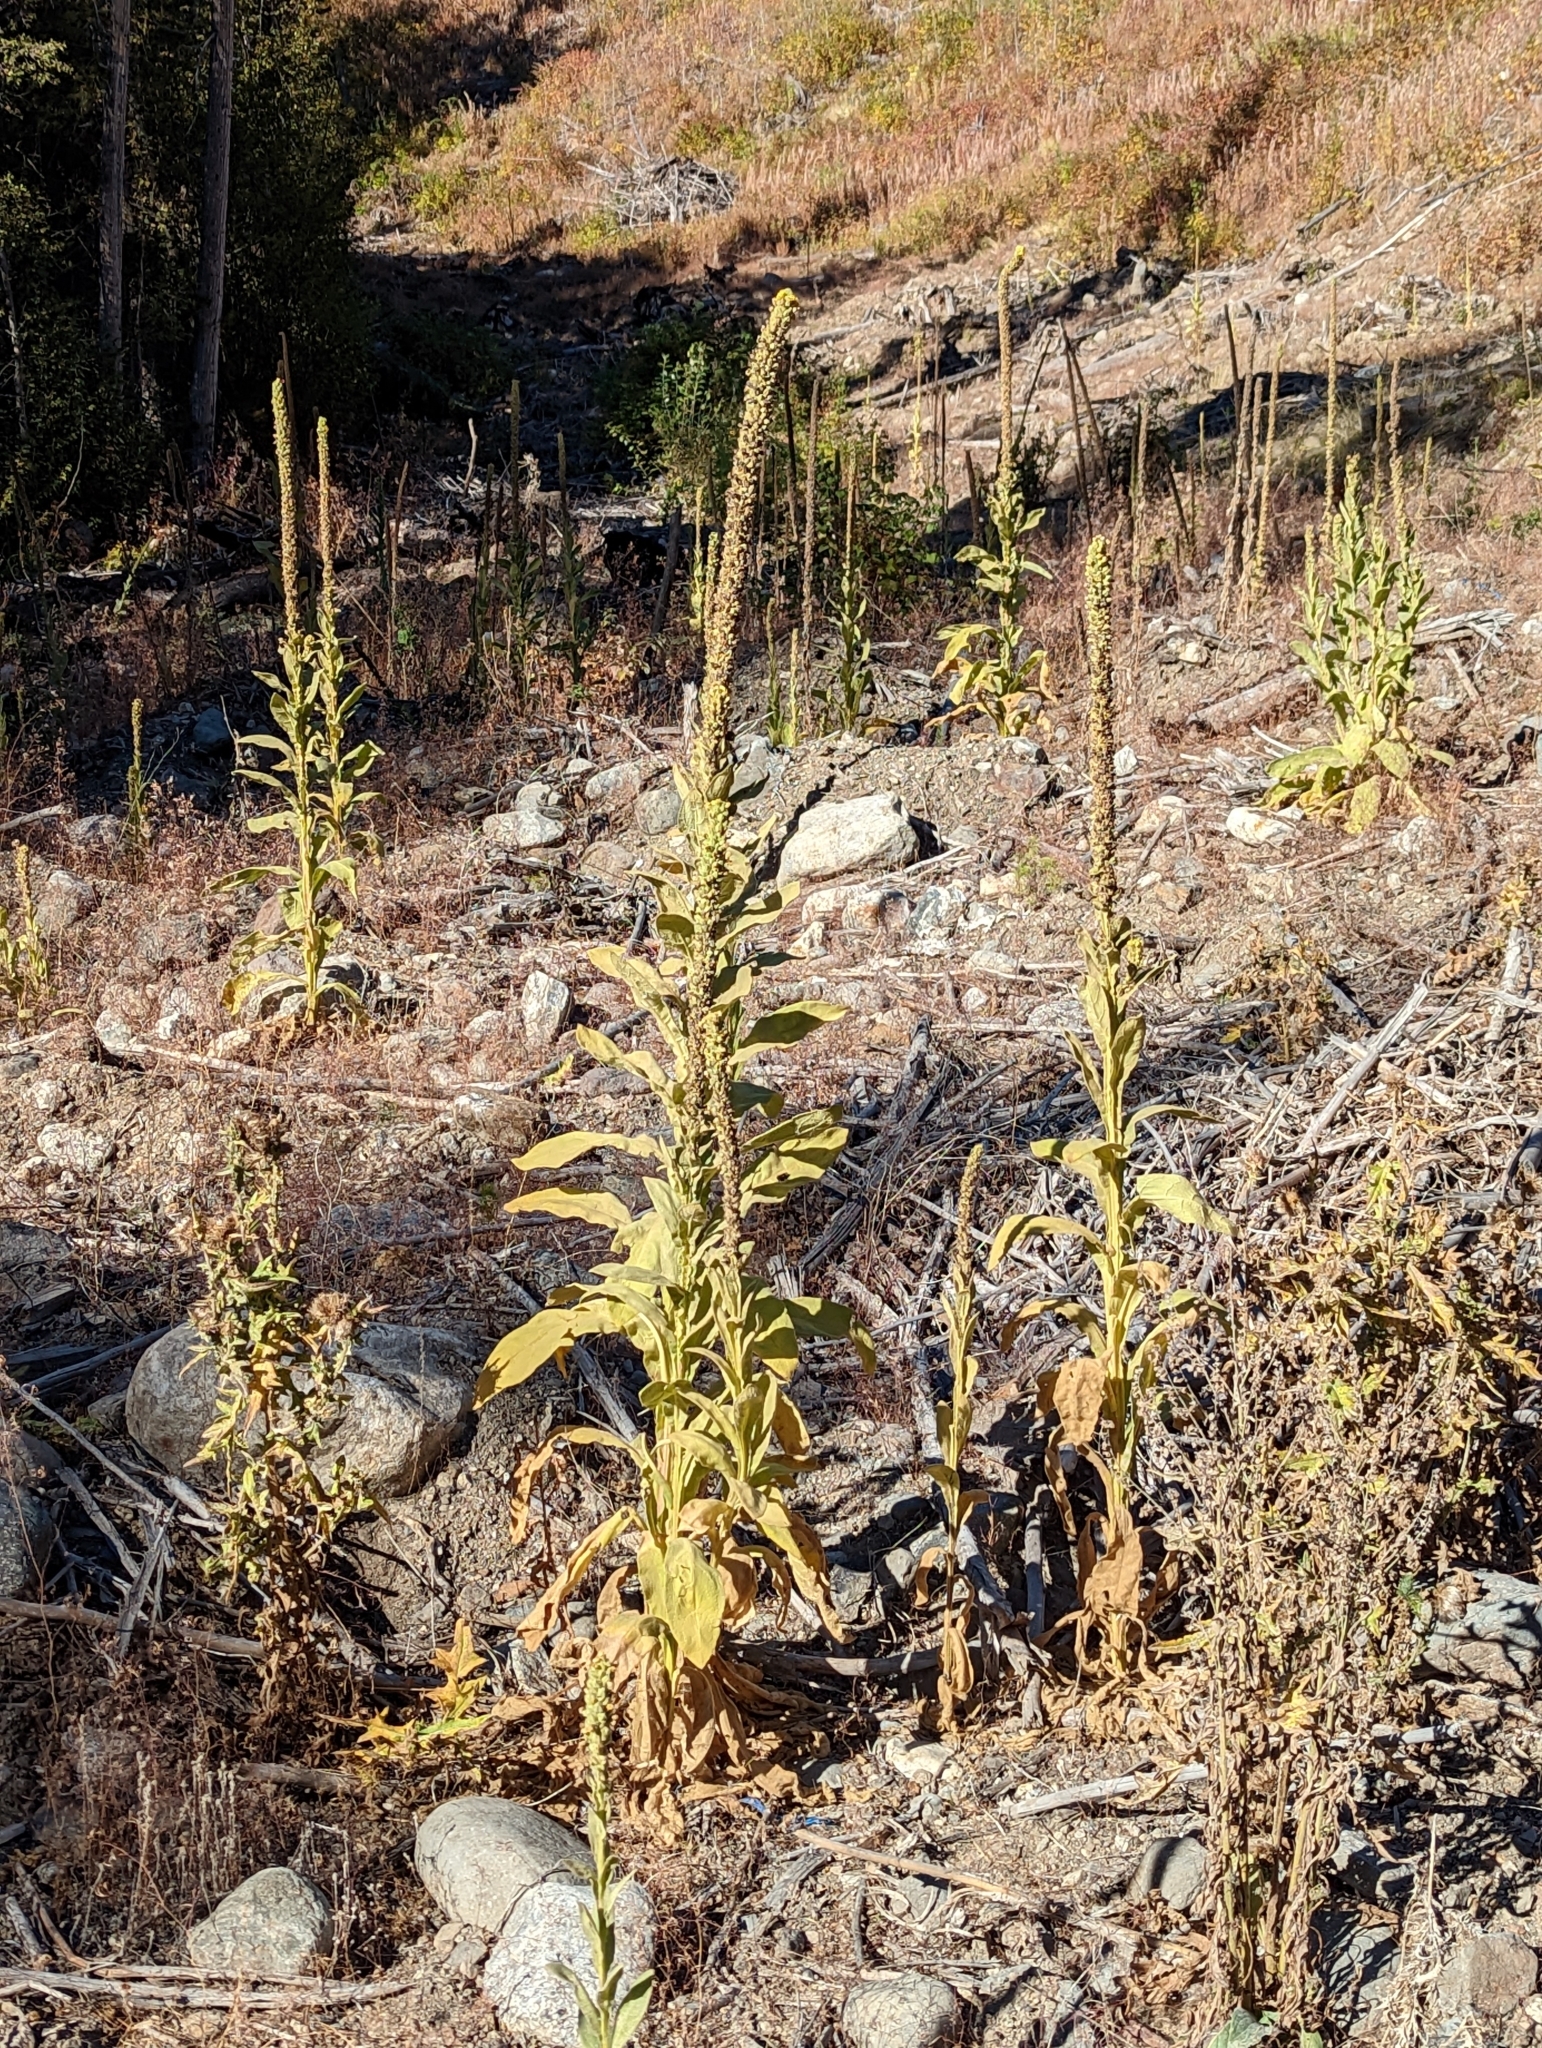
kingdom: Plantae
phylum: Tracheophyta
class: Magnoliopsida
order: Lamiales
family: Scrophulariaceae
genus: Verbascum
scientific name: Verbascum thapsus
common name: Common mullein
